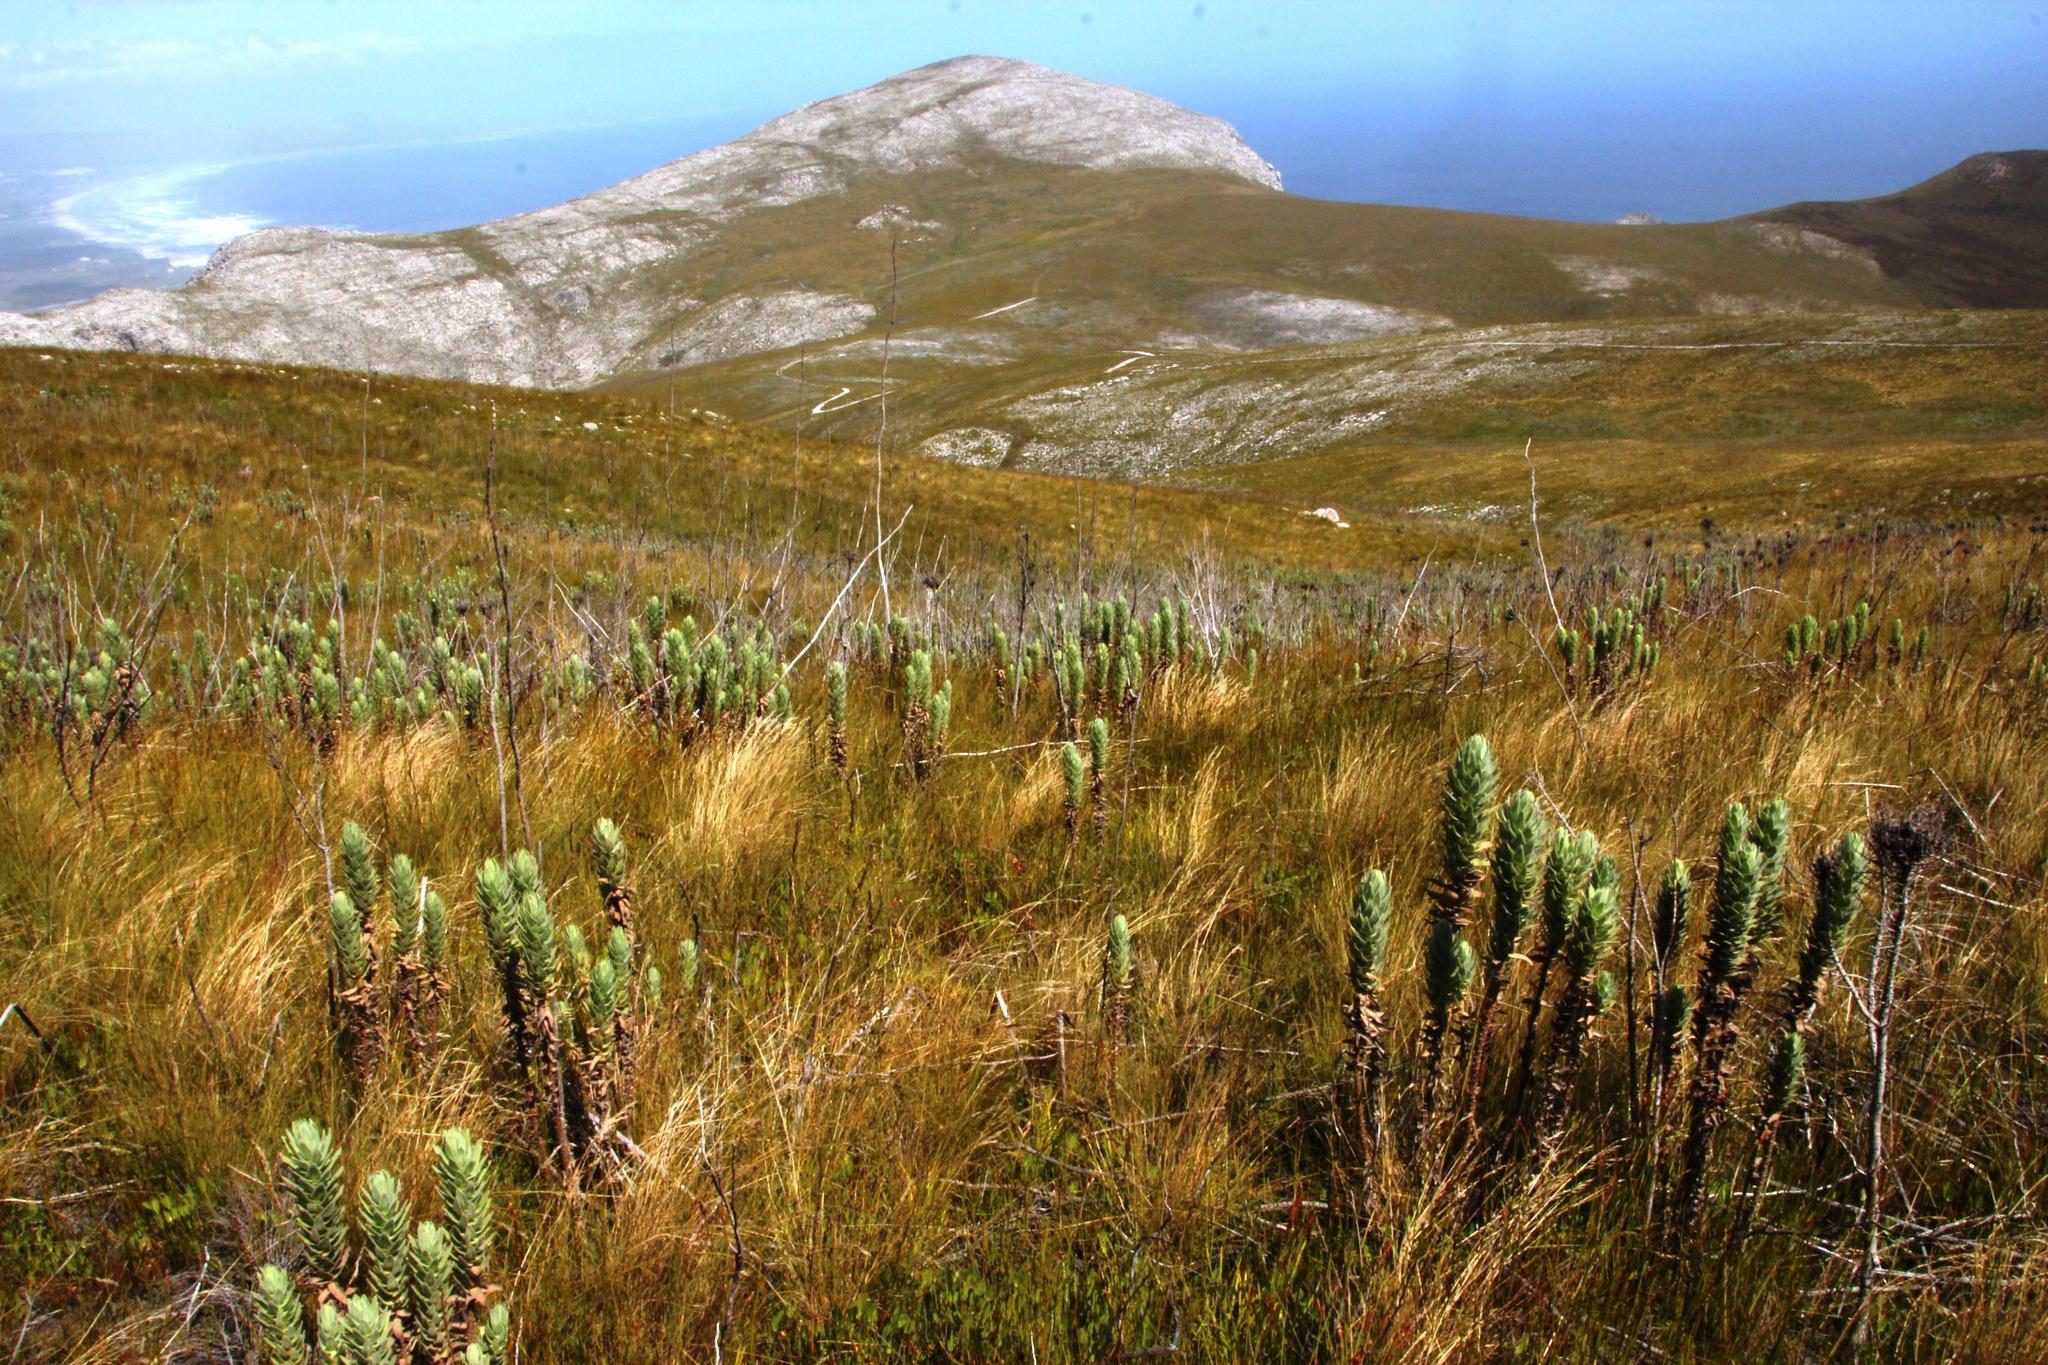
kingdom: Plantae
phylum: Tracheophyta
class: Magnoliopsida
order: Asterales
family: Asteraceae
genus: Osmitopsis
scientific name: Osmitopsis asteriscoides
